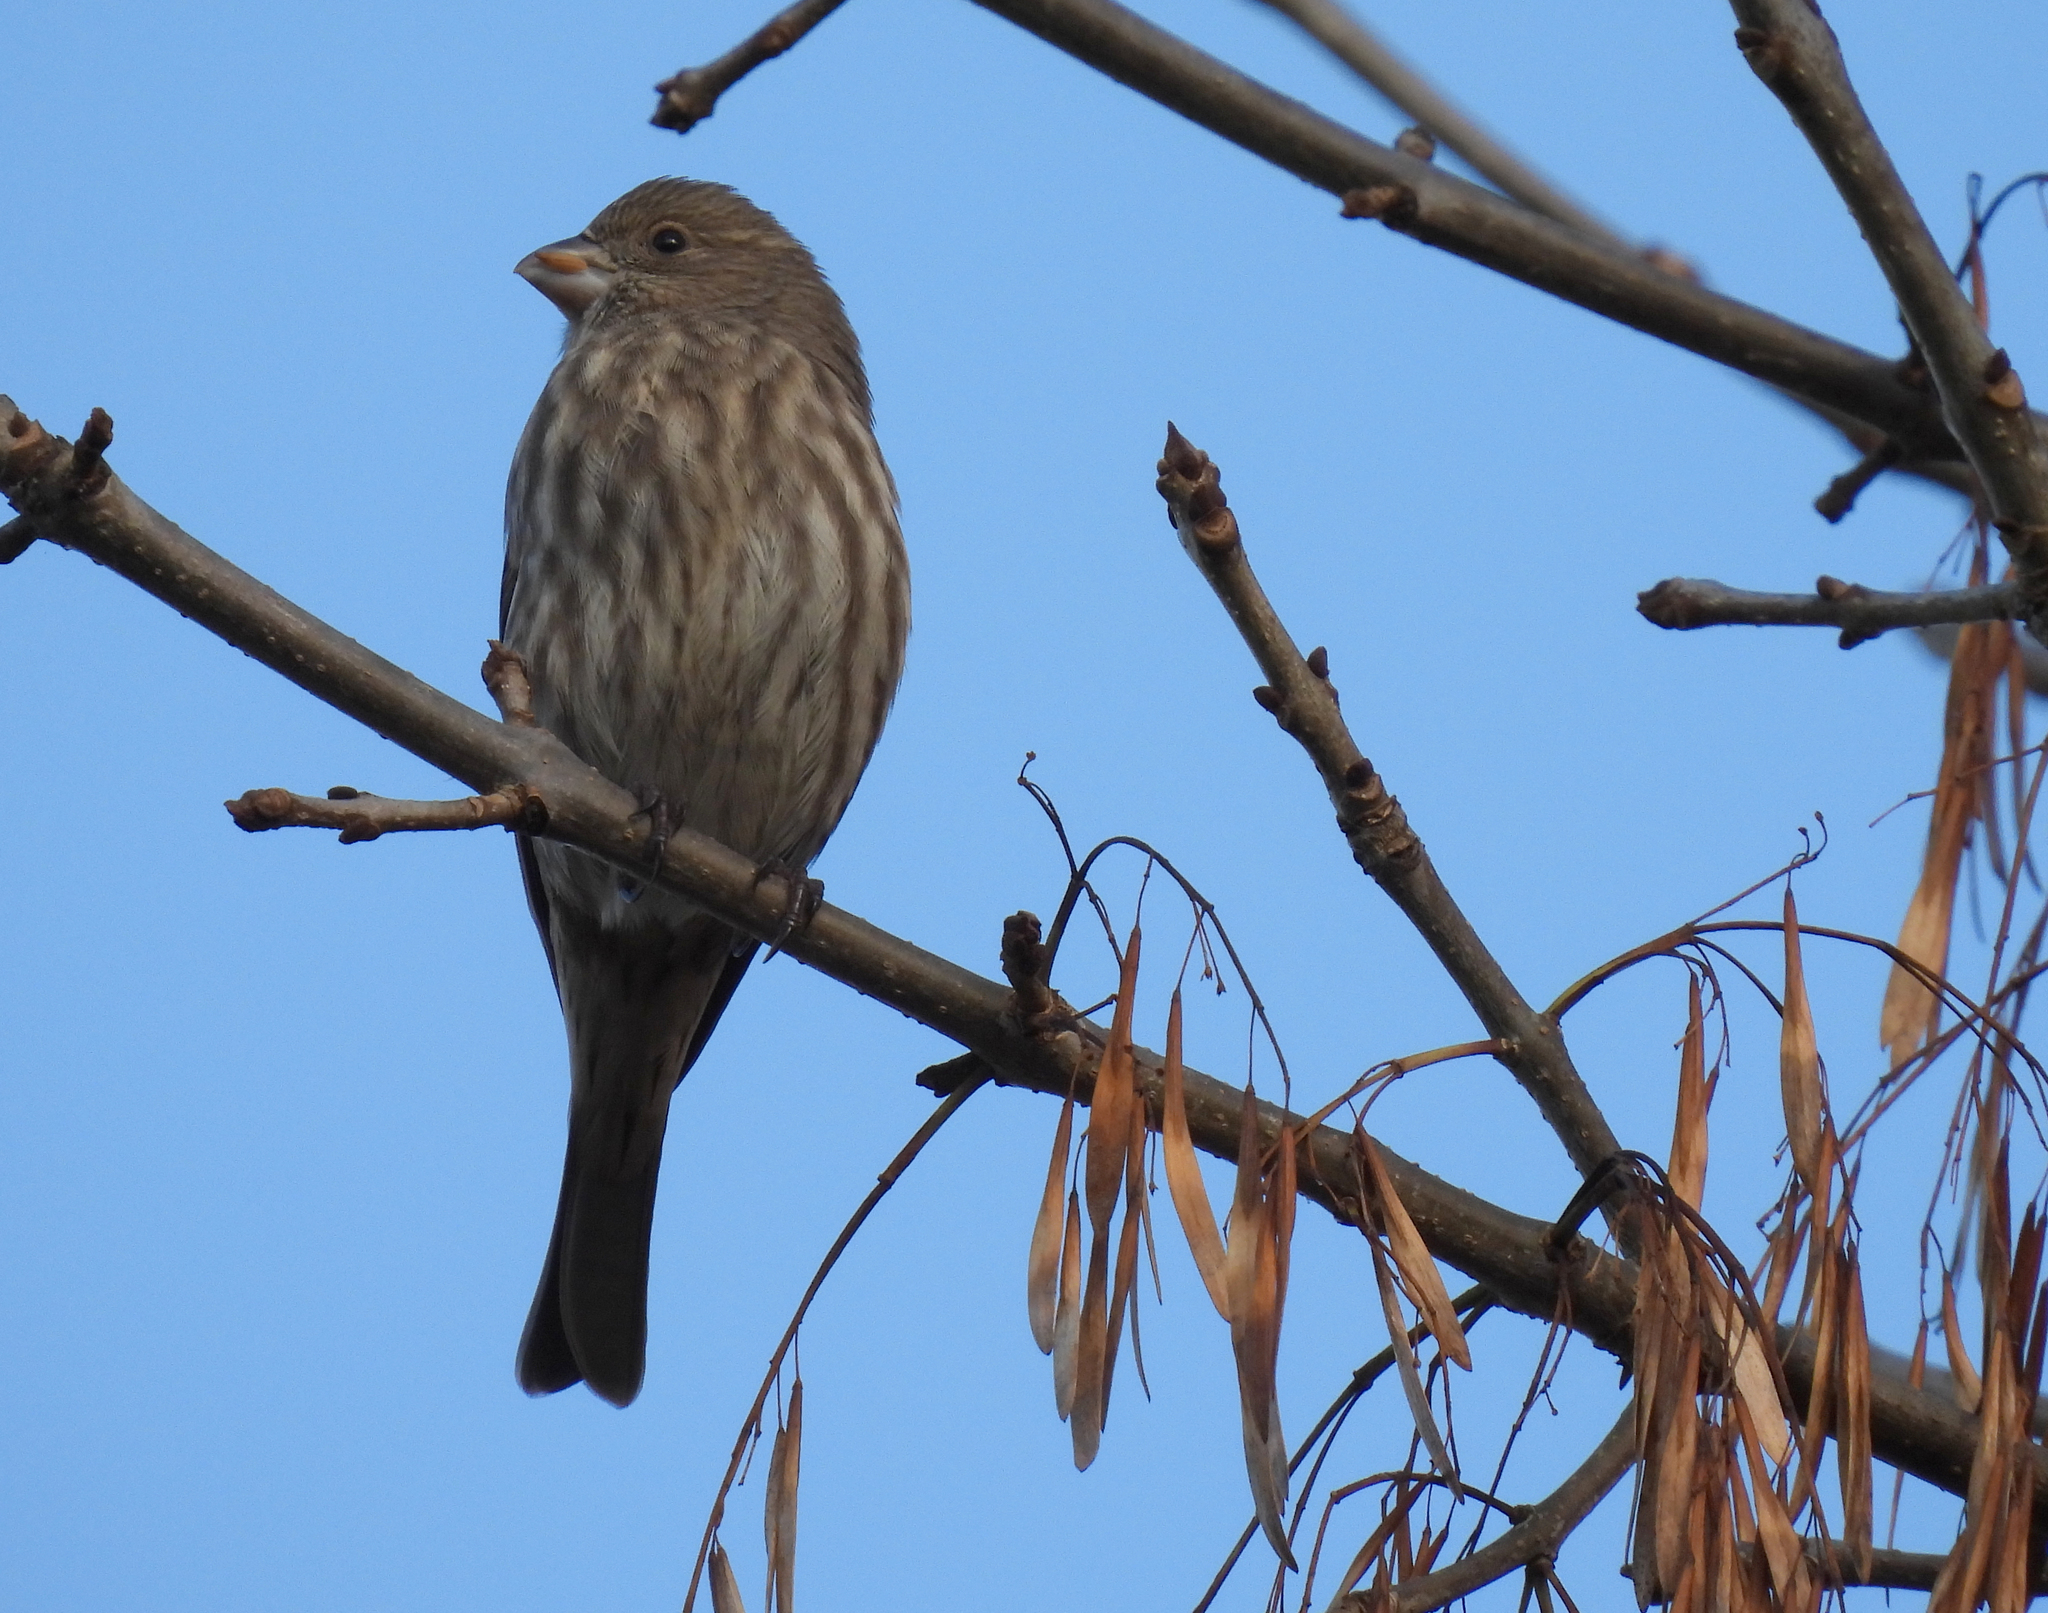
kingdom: Animalia
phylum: Chordata
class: Aves
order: Passeriformes
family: Fringillidae
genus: Haemorhous
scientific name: Haemorhous mexicanus
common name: House finch
